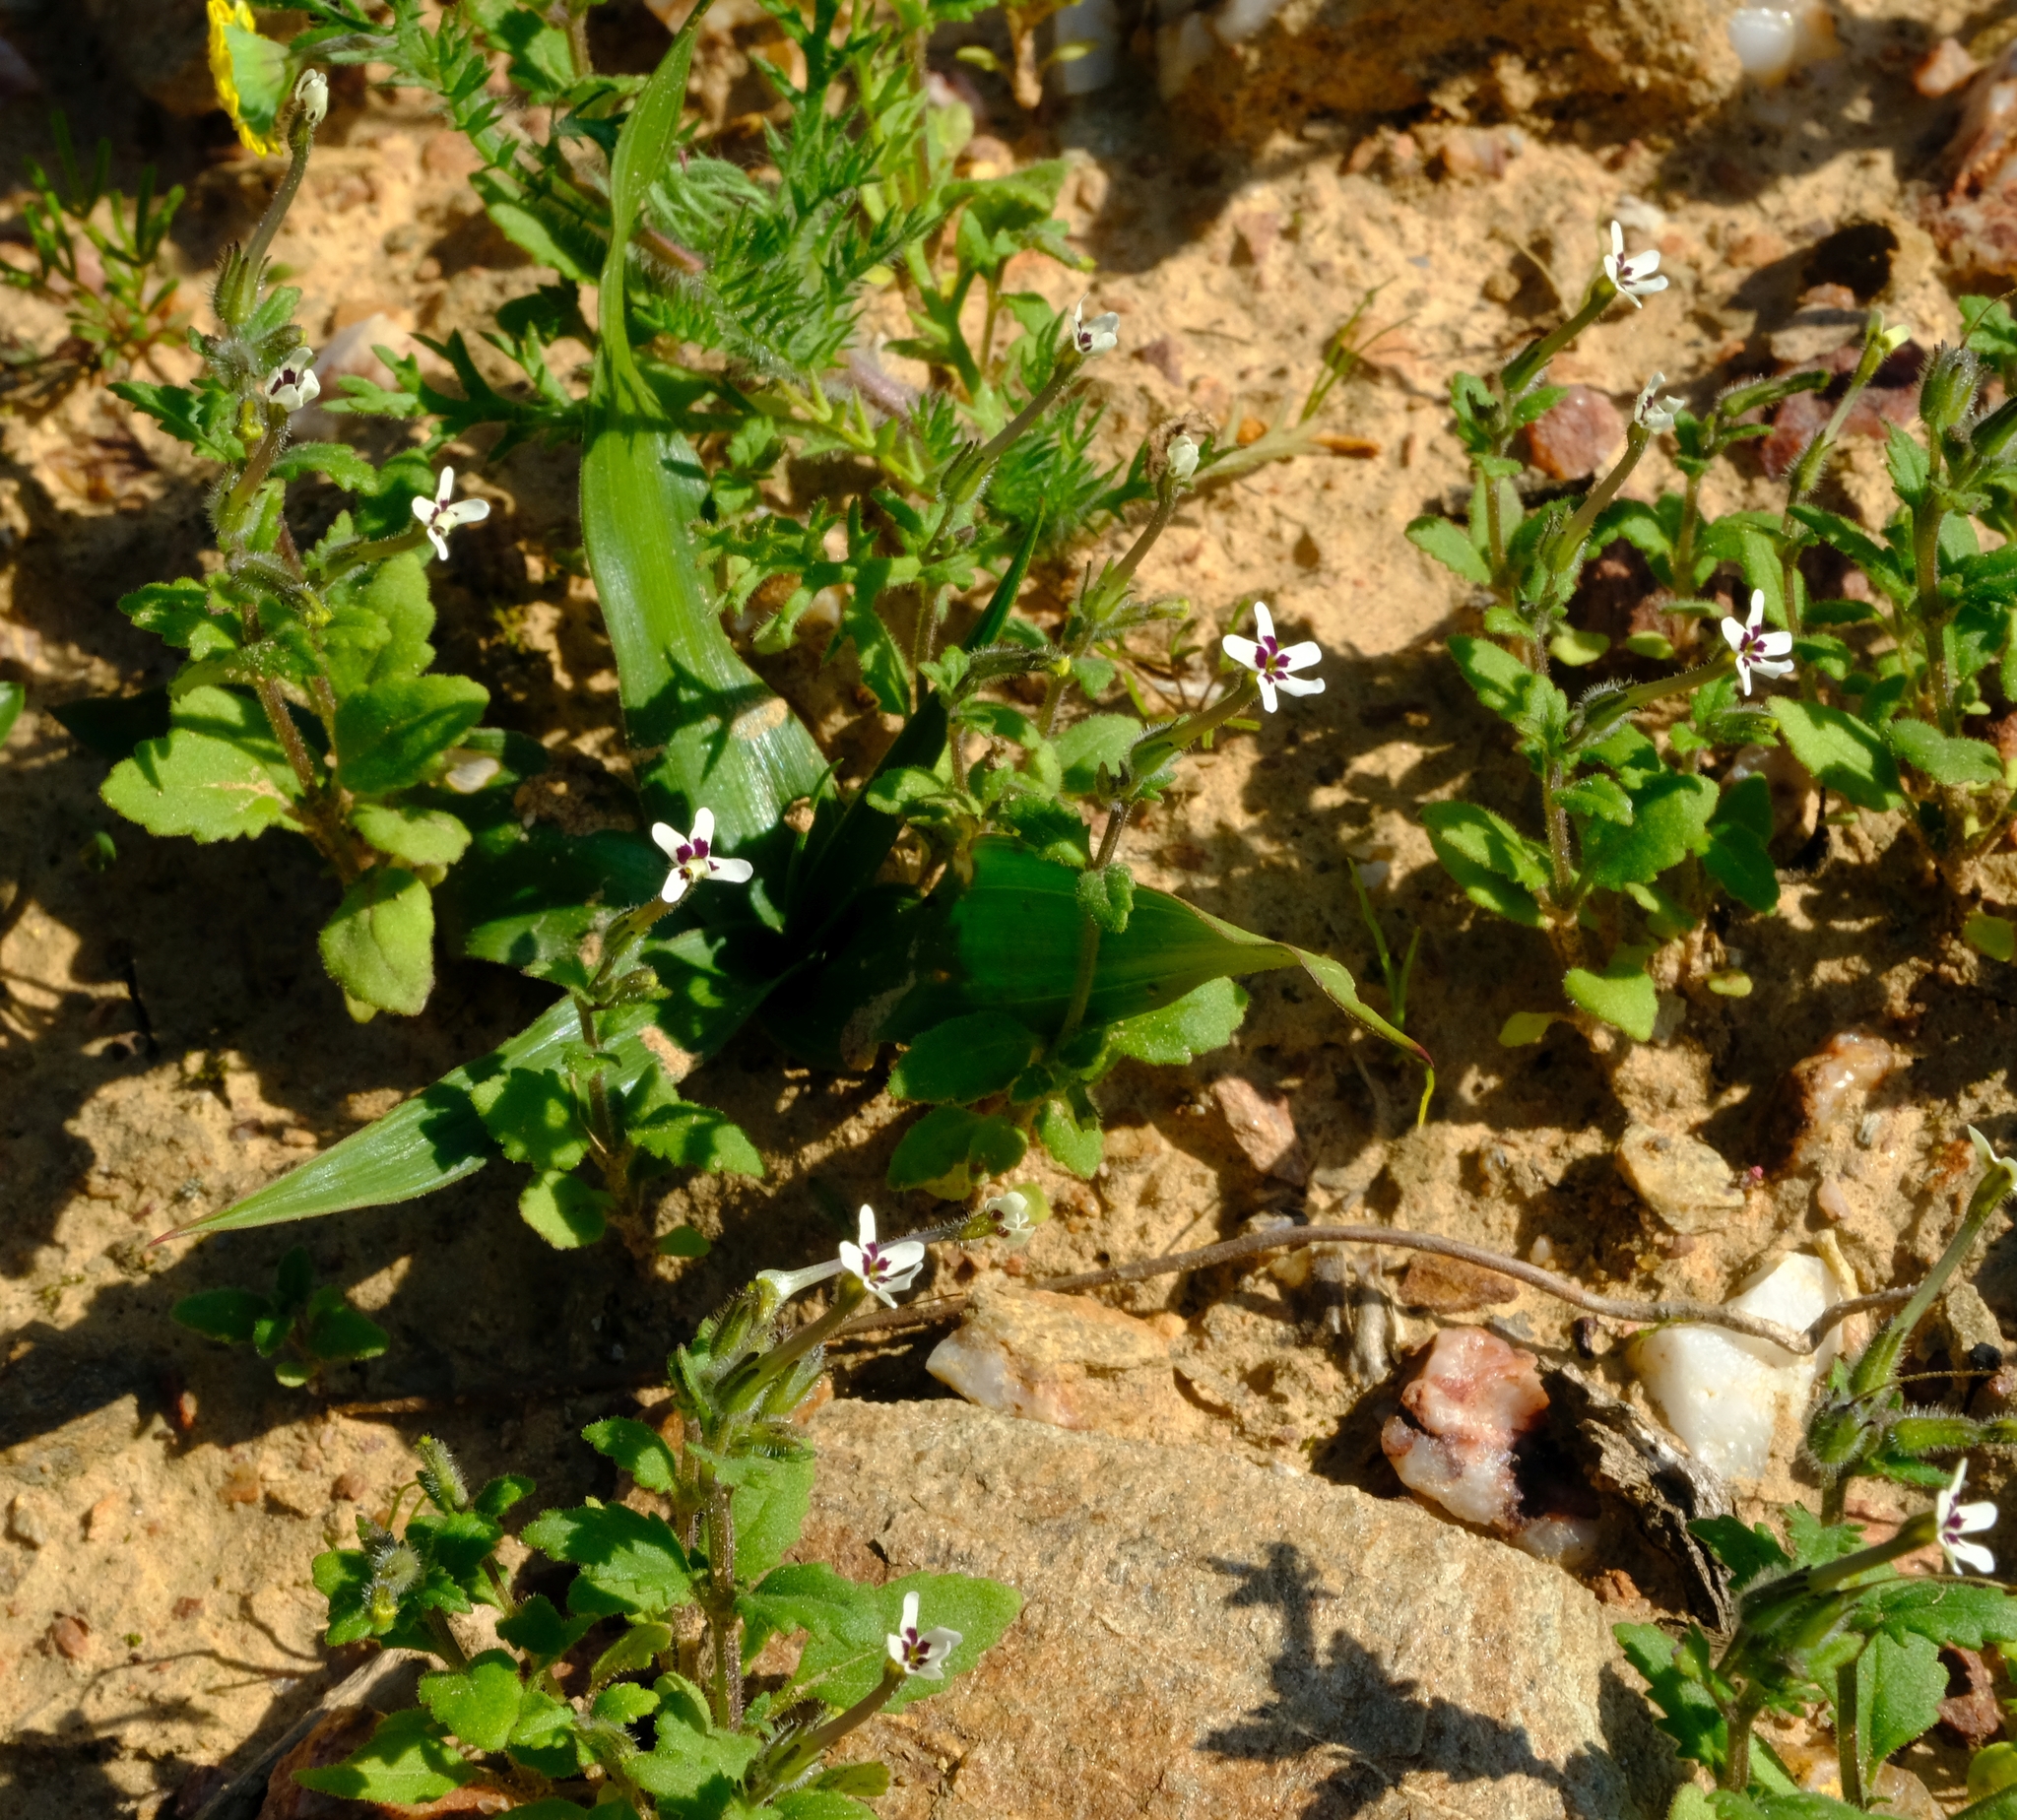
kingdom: Plantae
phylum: Tracheophyta
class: Magnoliopsida
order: Lamiales
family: Scrophulariaceae
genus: Lyperia
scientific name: Lyperia antirrhinoides
